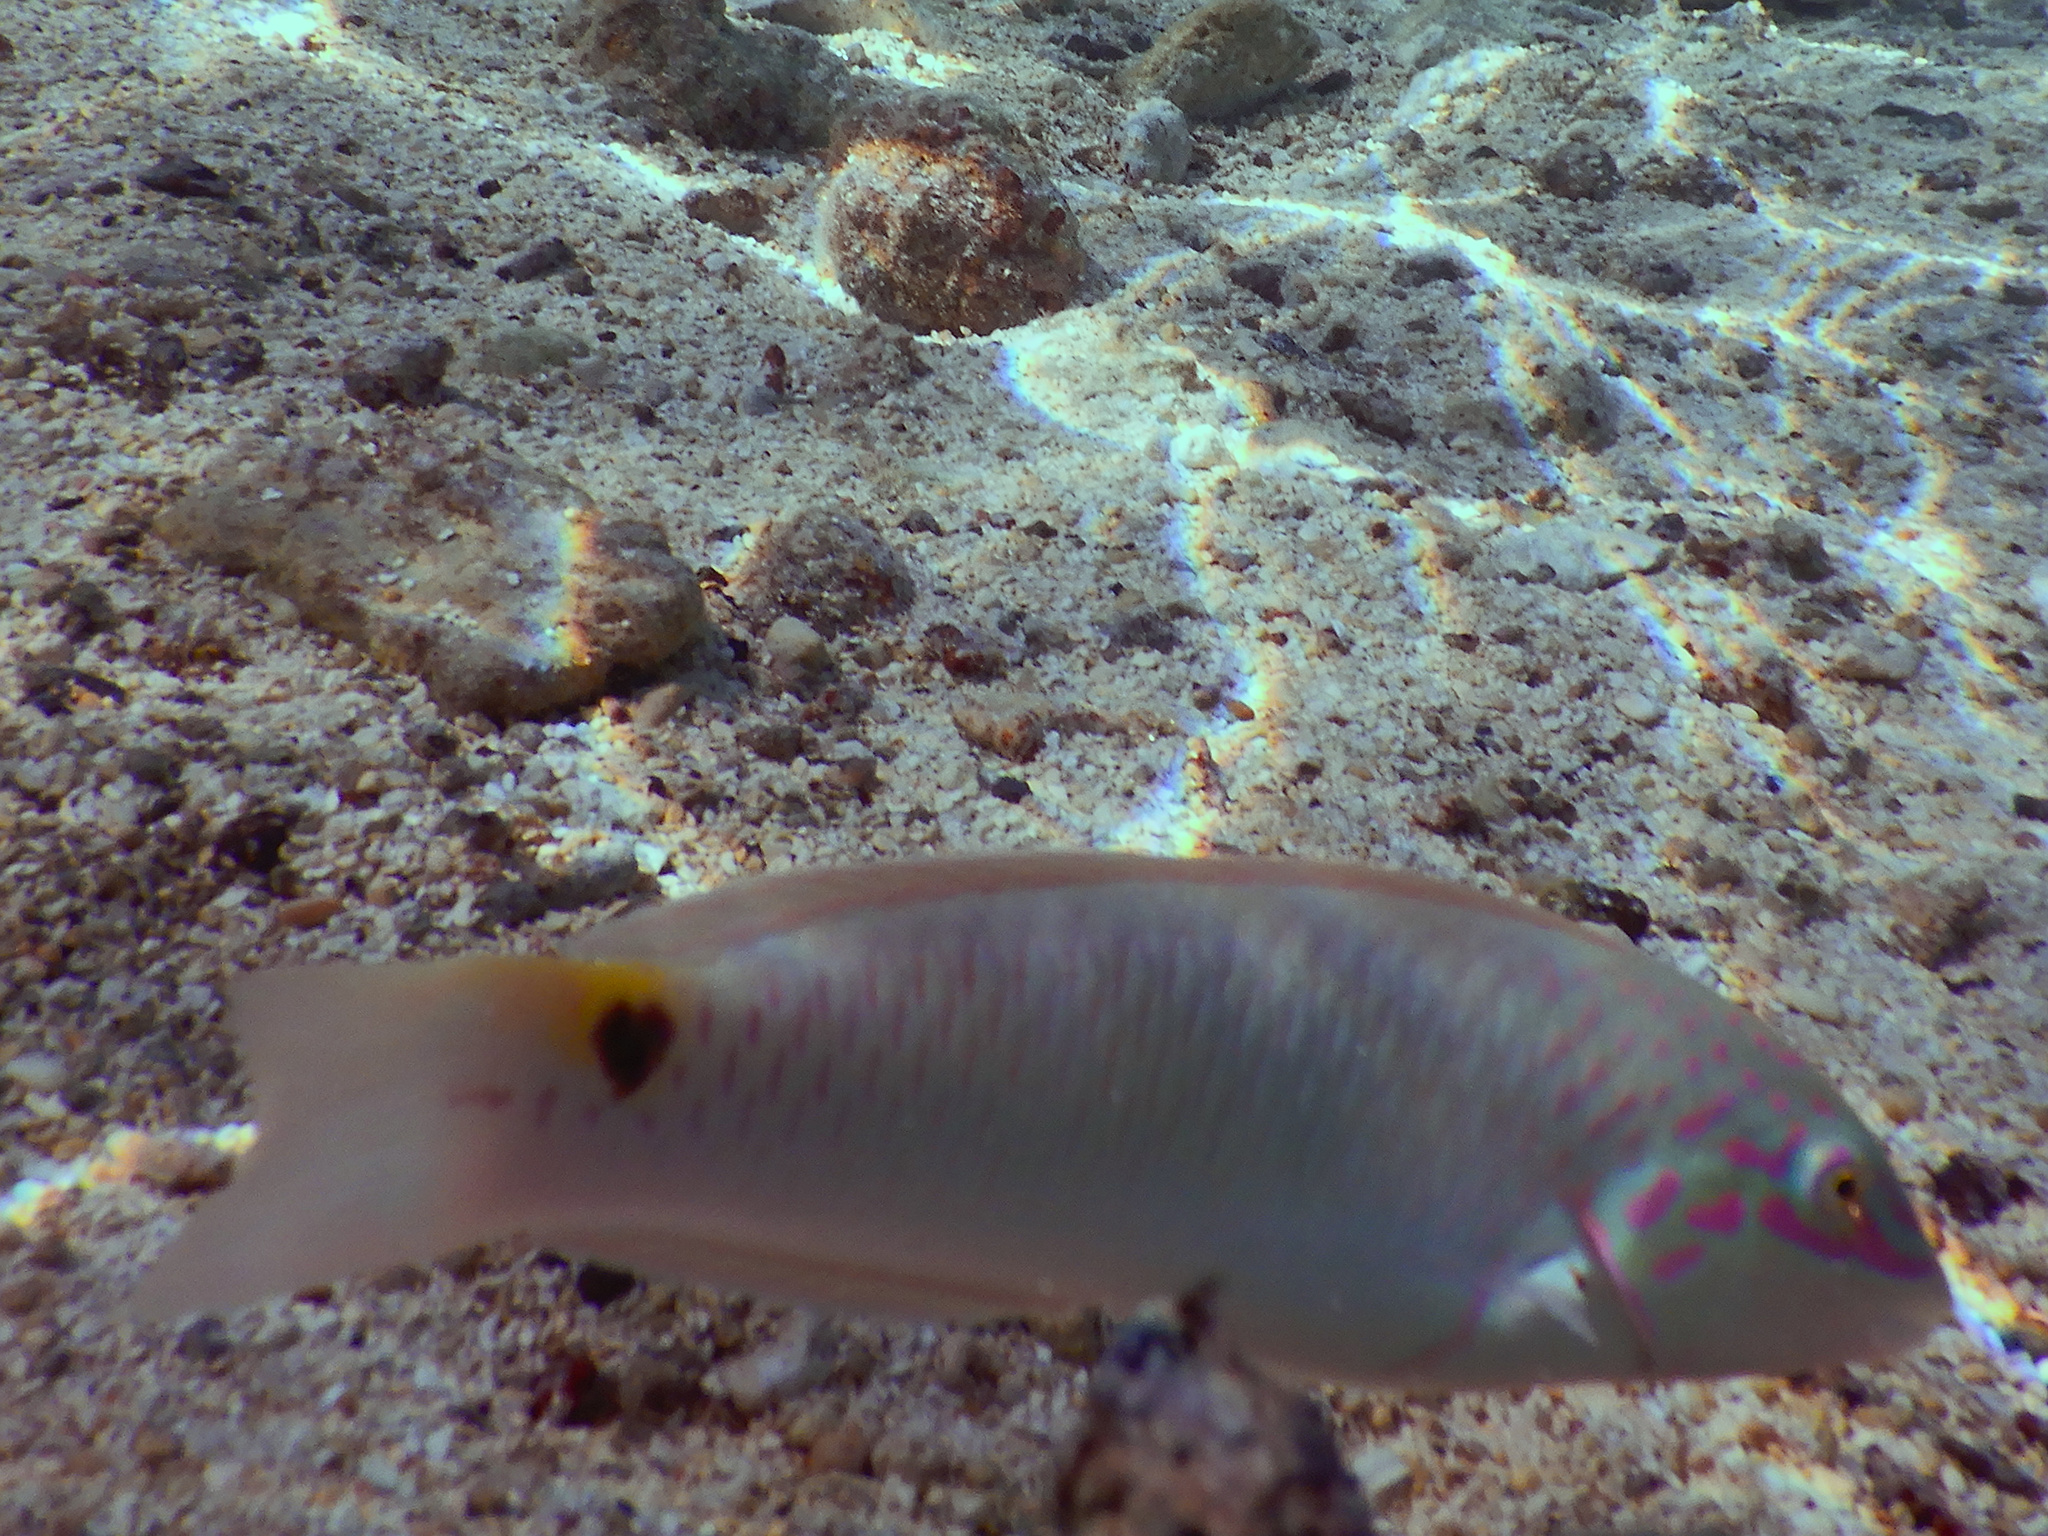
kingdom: Animalia
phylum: Chordata
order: Perciformes
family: Labridae
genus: Halichoeres
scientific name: Halichoeres trimaculatus
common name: Three-spot wrasse
